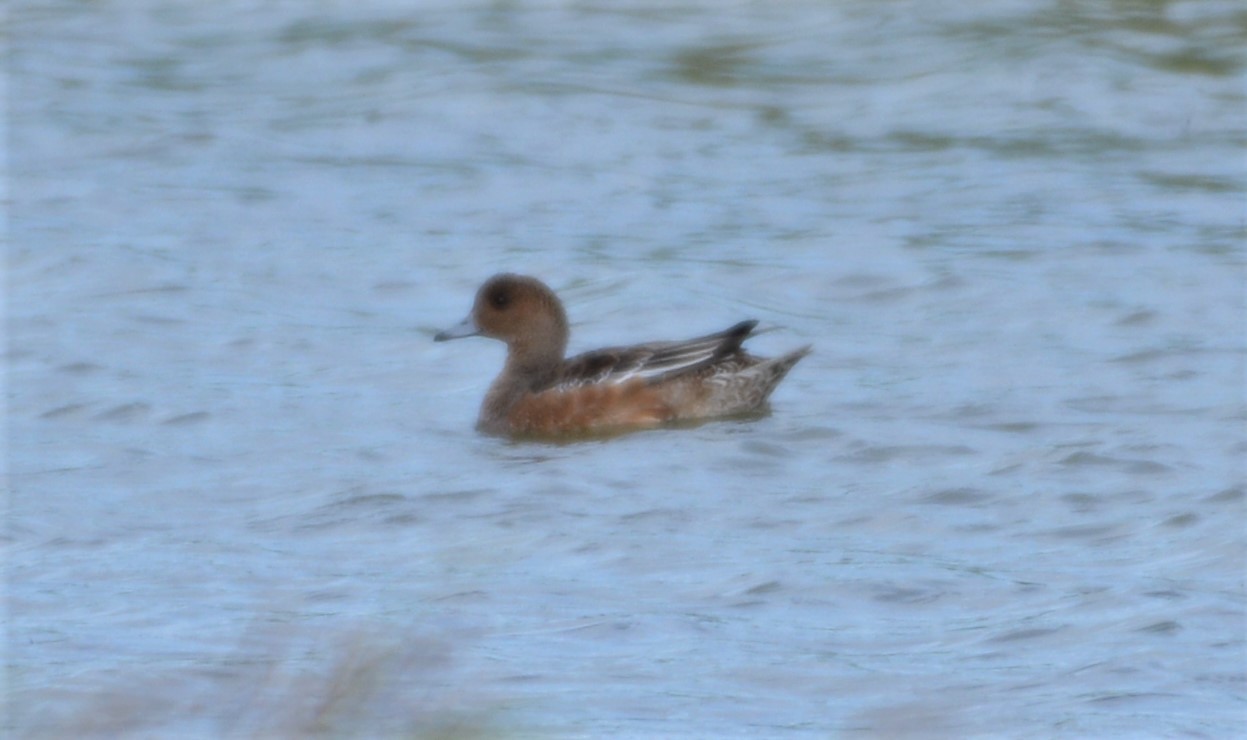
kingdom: Animalia
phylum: Chordata
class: Aves
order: Anseriformes
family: Anatidae
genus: Mareca
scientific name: Mareca penelope
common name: Eurasian wigeon
